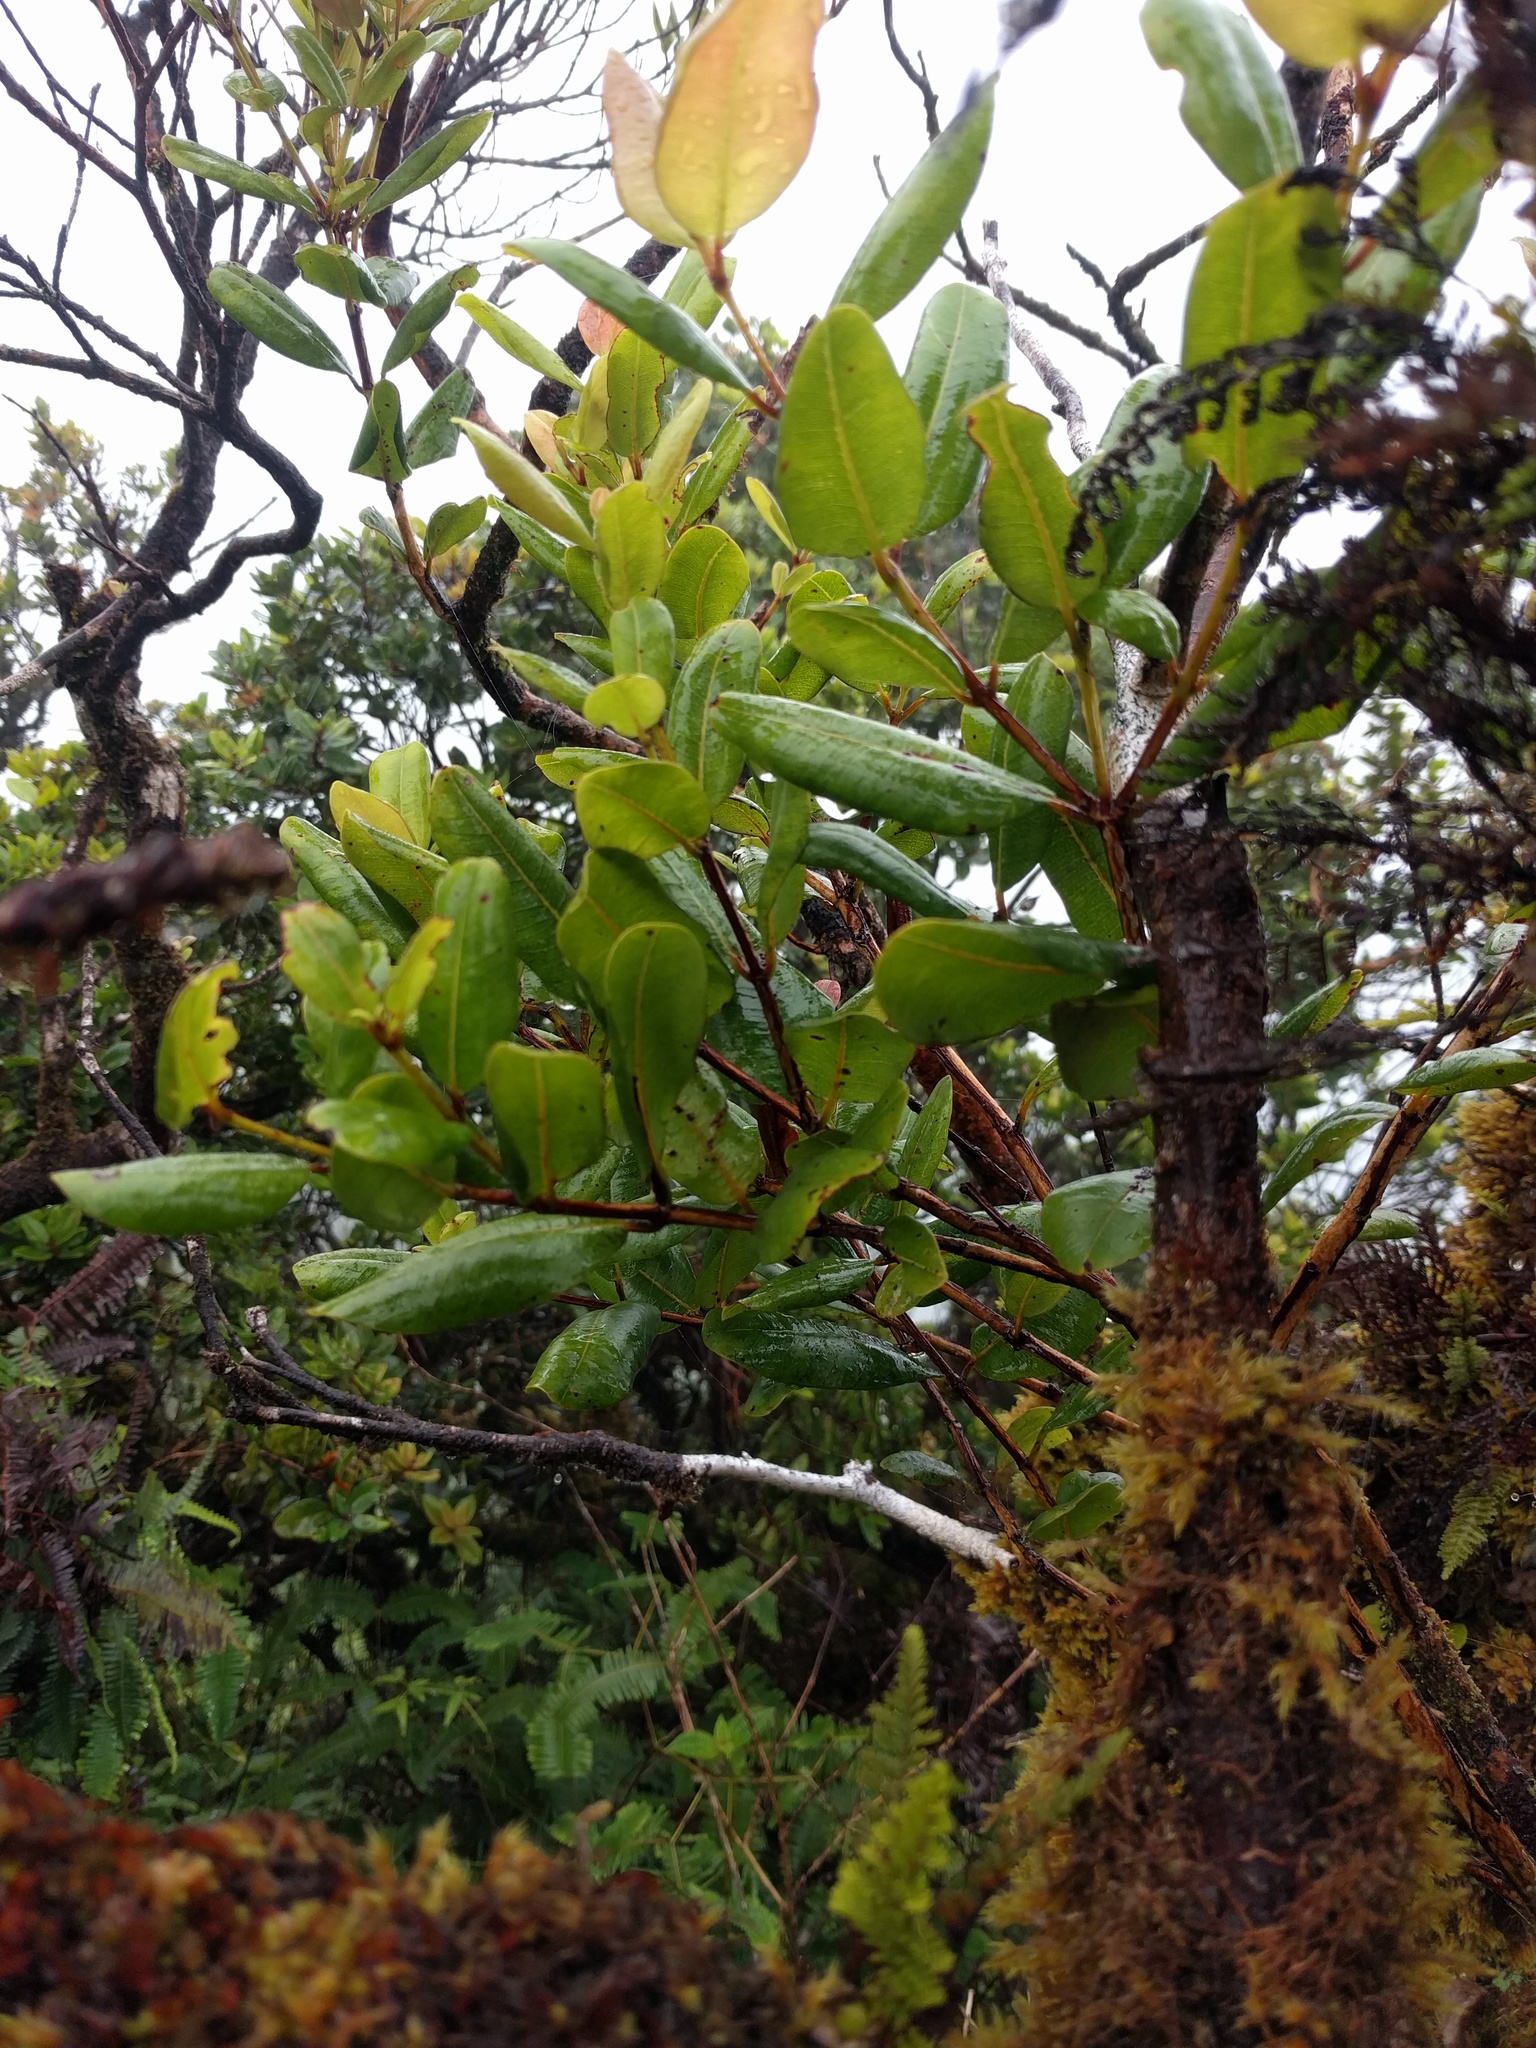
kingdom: Plantae
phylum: Tracheophyta
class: Magnoliopsida
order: Myrtales
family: Myrtaceae
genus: Syzygium
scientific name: Syzygium sandwicense
